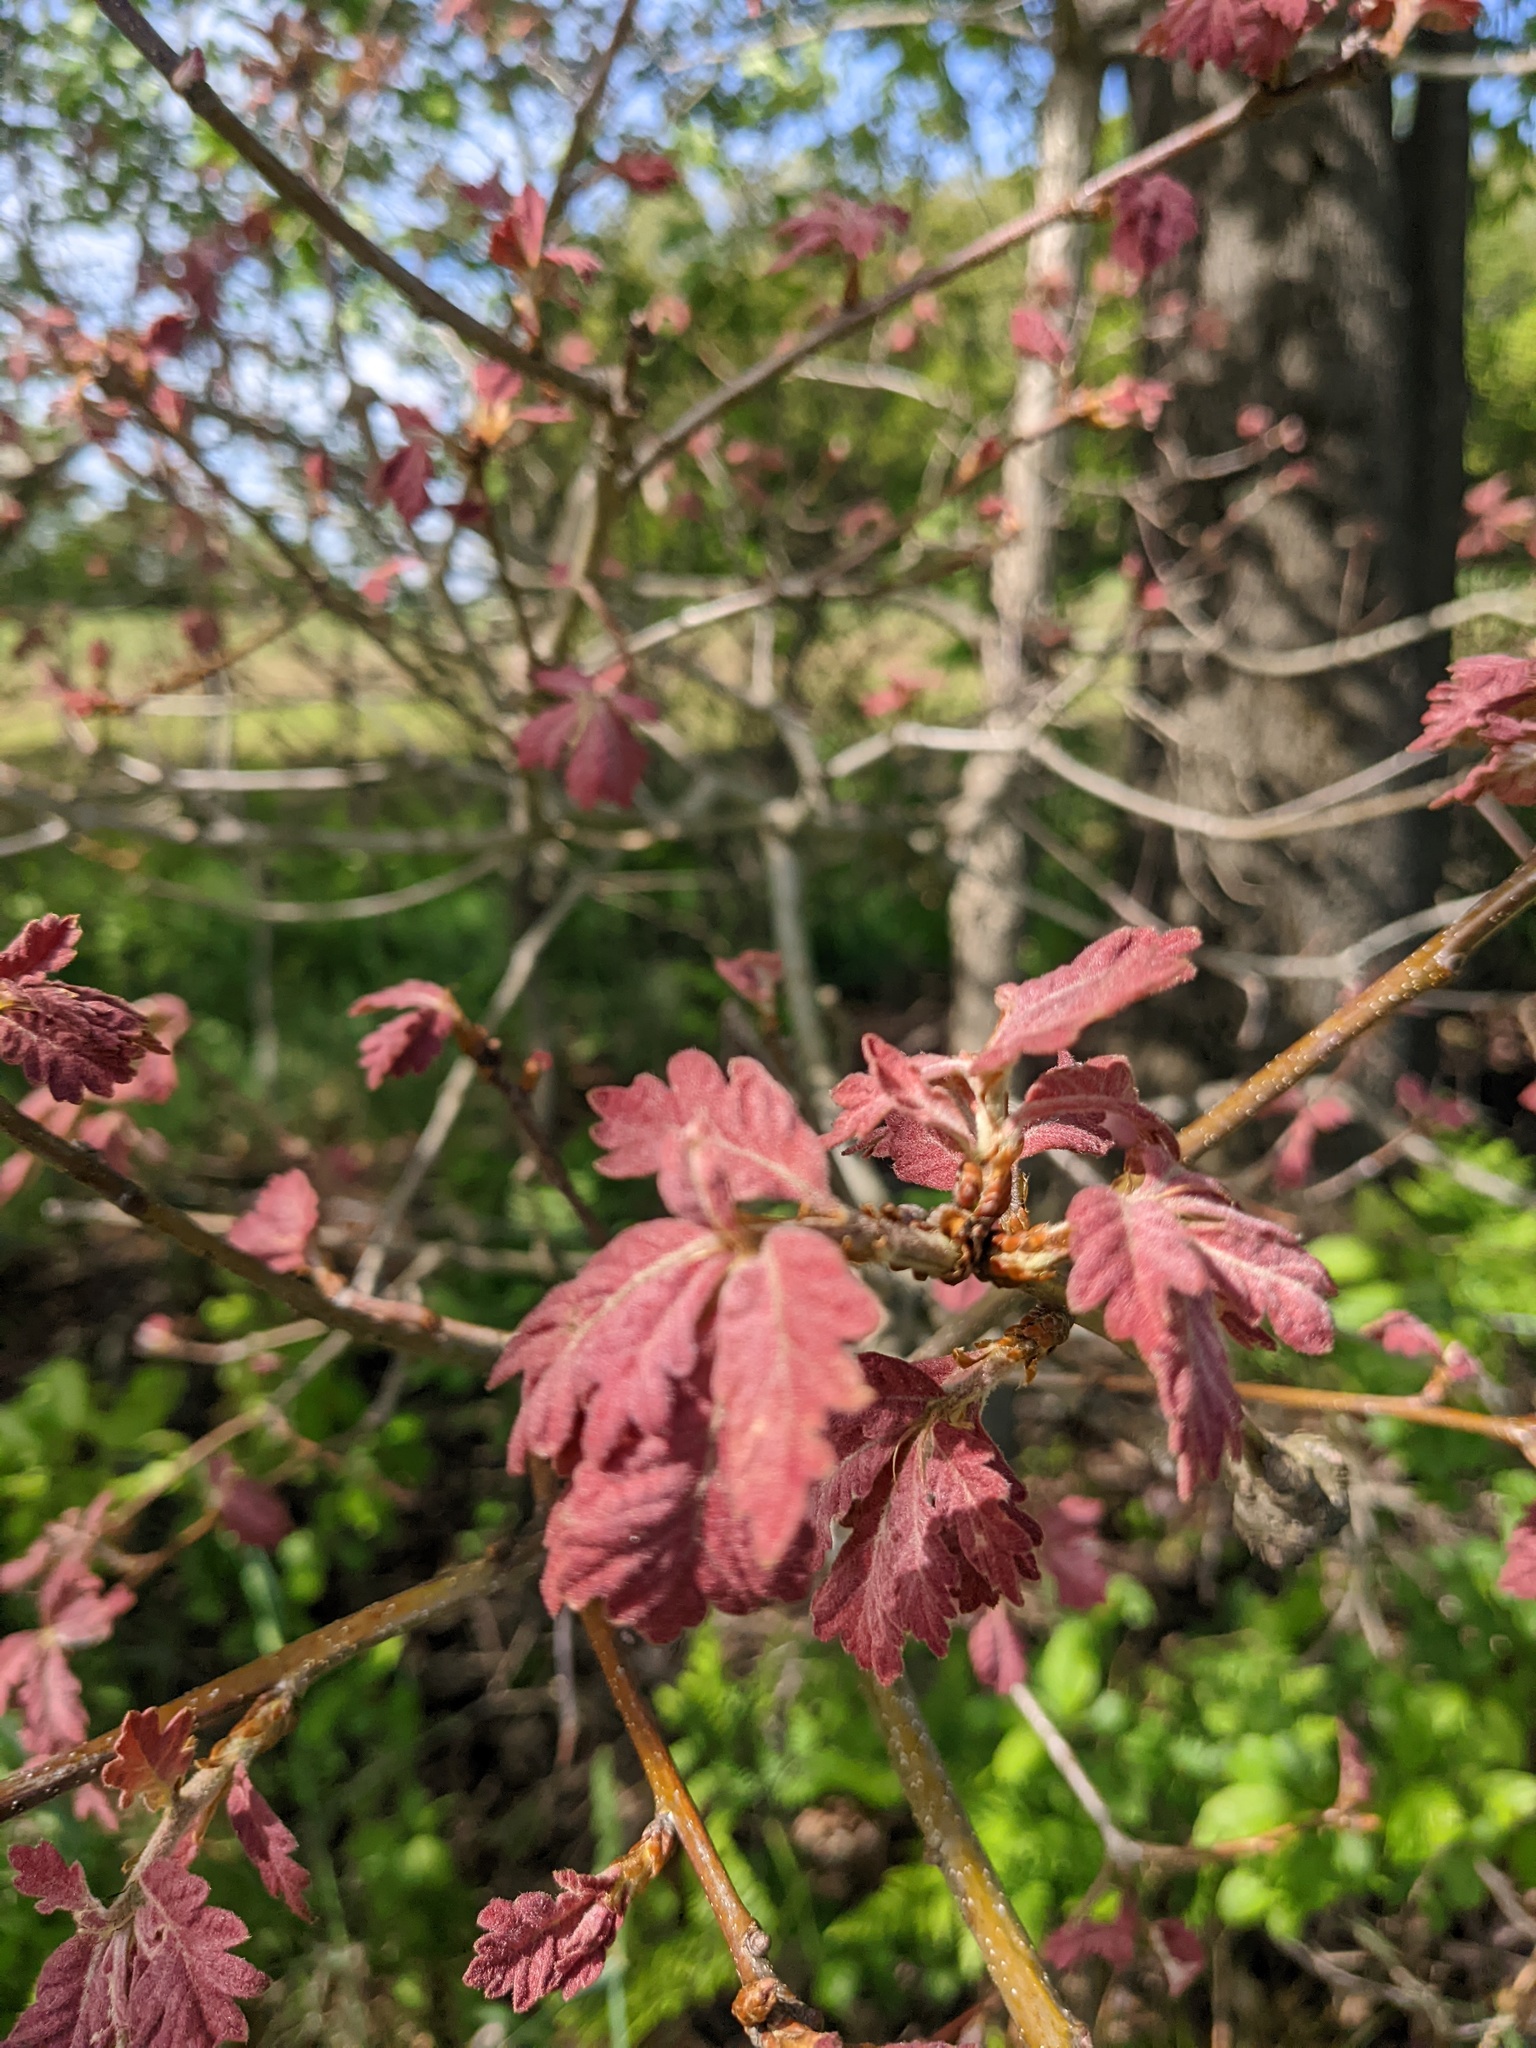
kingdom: Plantae
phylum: Tracheophyta
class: Magnoliopsida
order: Fagales
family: Fagaceae
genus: Quercus
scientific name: Quercus alba
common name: White oak
